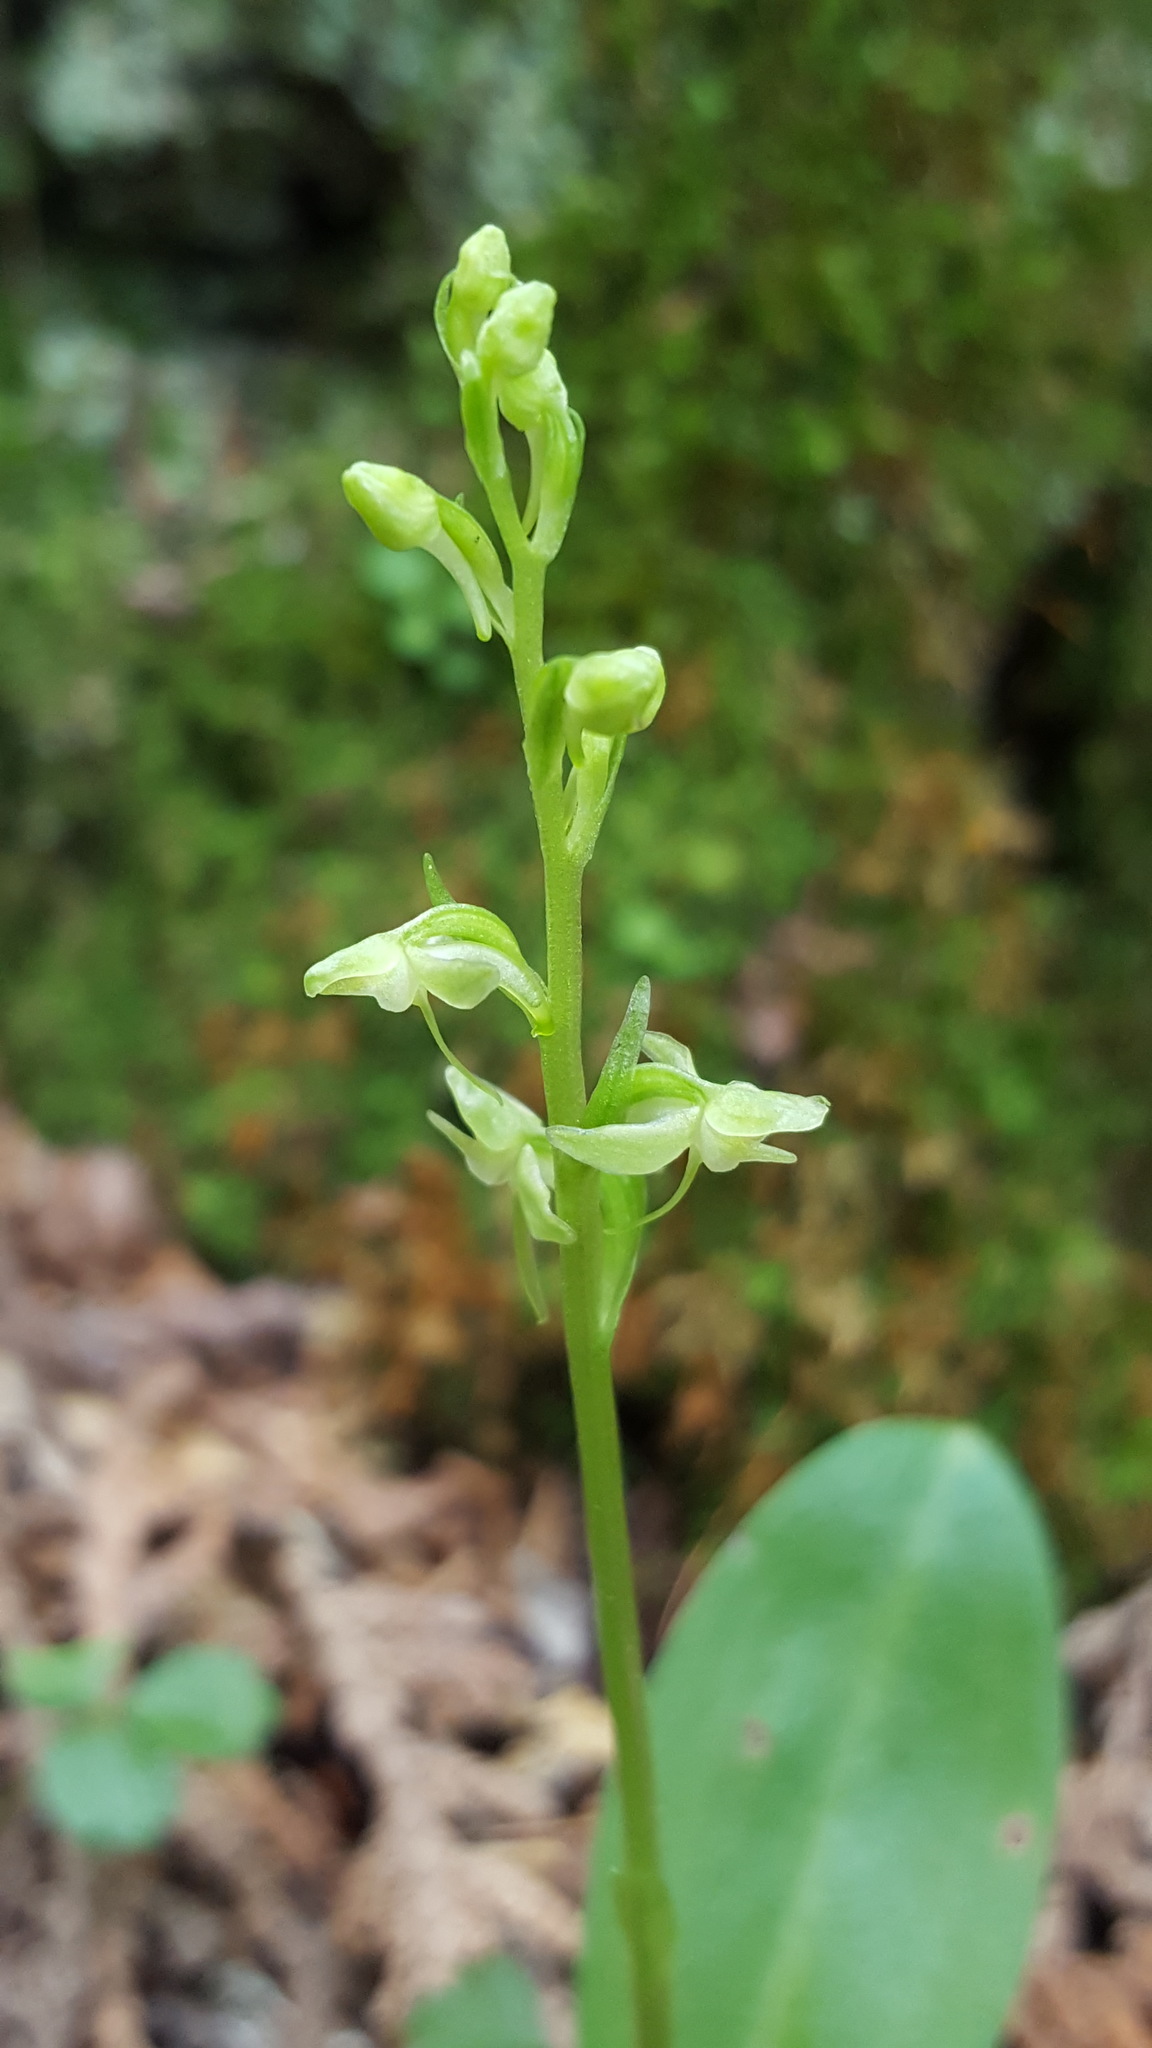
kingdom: Plantae
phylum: Tracheophyta
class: Liliopsida
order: Asparagales
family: Orchidaceae
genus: Platanthera
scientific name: Platanthera obtusata
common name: Blunt bog orchid
